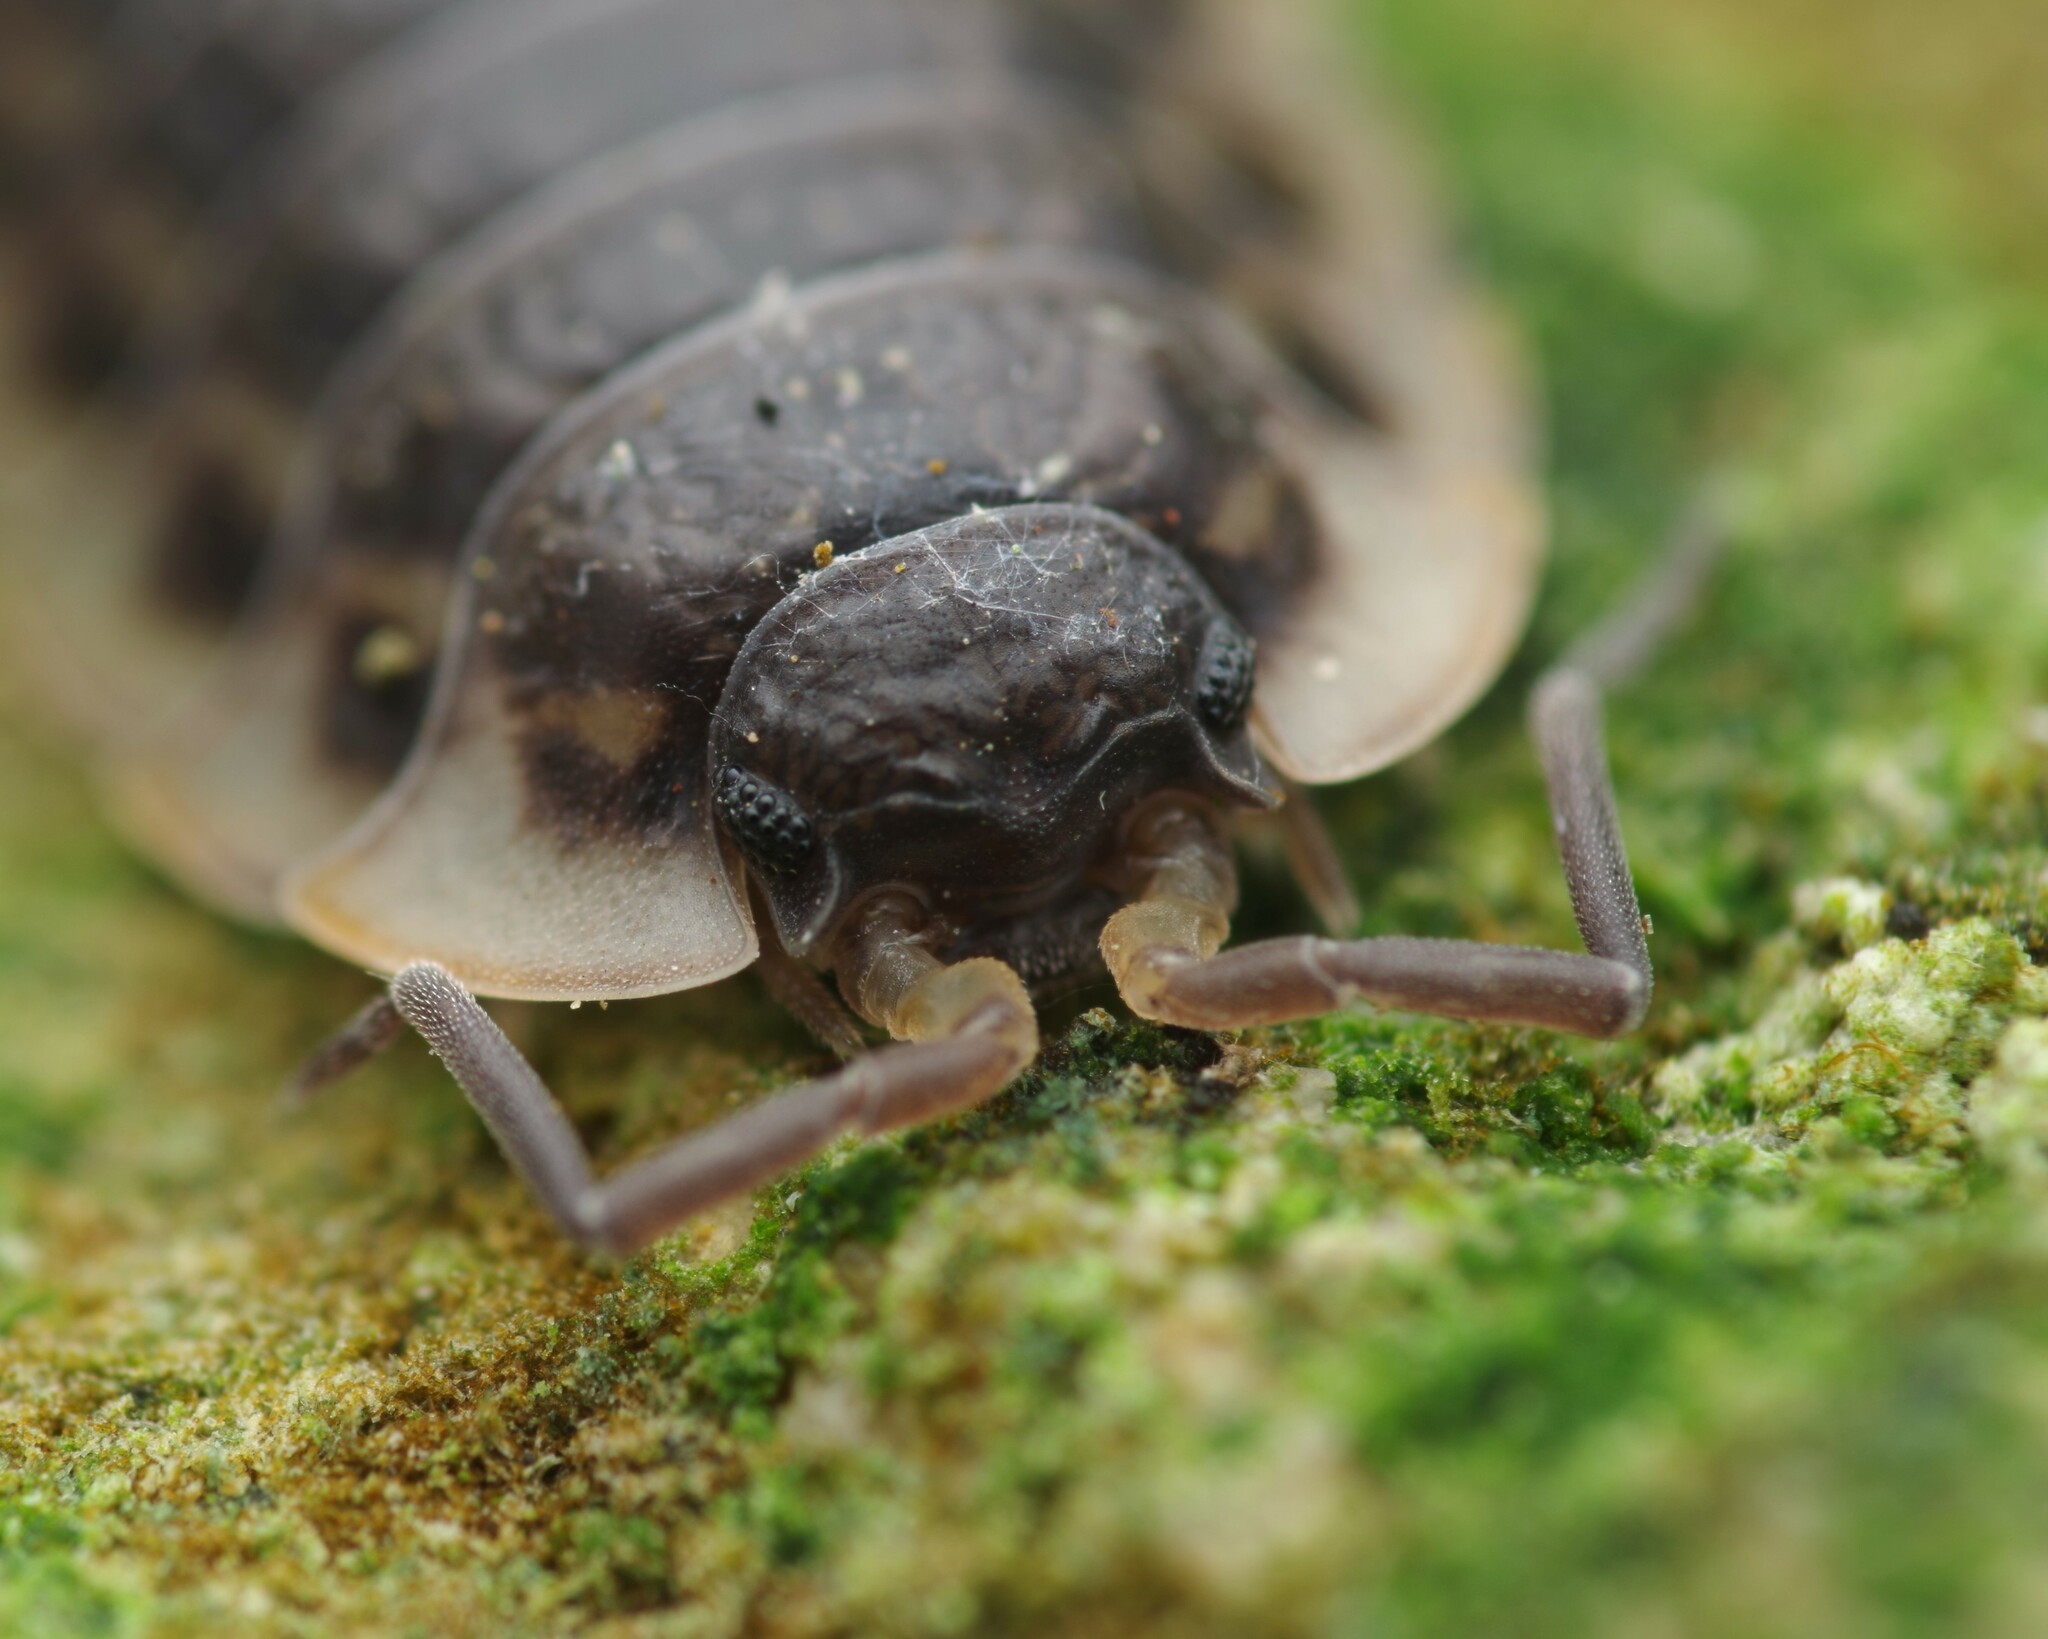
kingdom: Animalia
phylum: Arthropoda
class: Malacostraca
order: Isopoda
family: Oniscidae
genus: Oniscus
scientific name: Oniscus asellus
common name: Common shiny woodlouse
